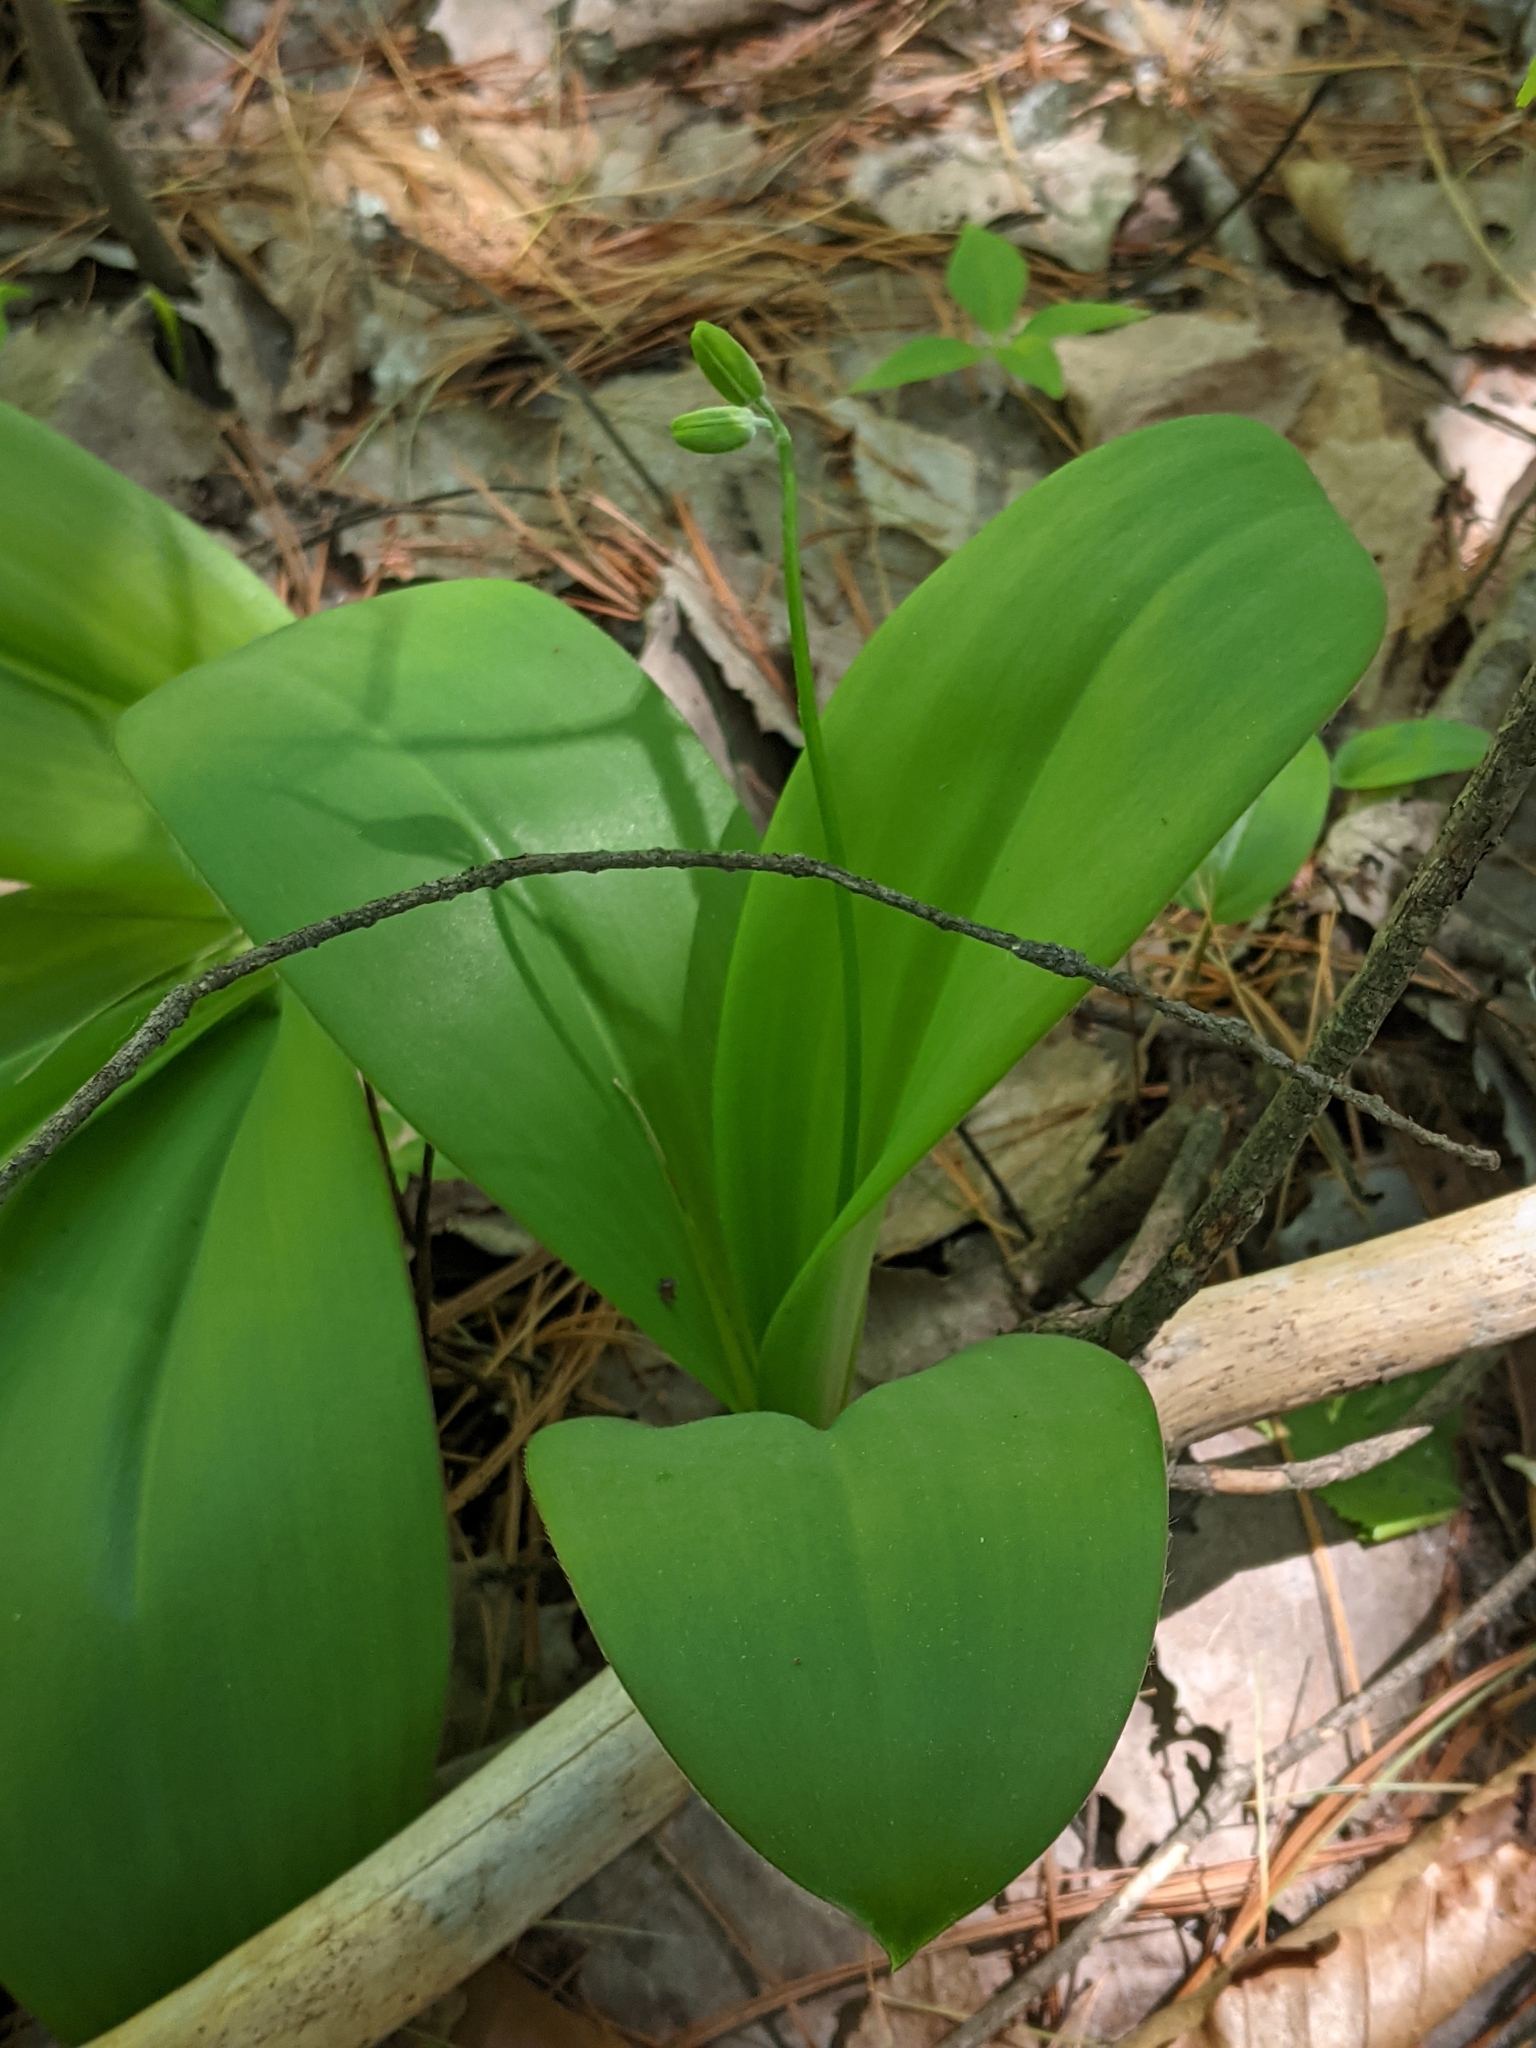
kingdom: Plantae
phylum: Tracheophyta
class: Liliopsida
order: Liliales
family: Liliaceae
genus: Clintonia
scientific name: Clintonia borealis
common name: Yellow clintonia
